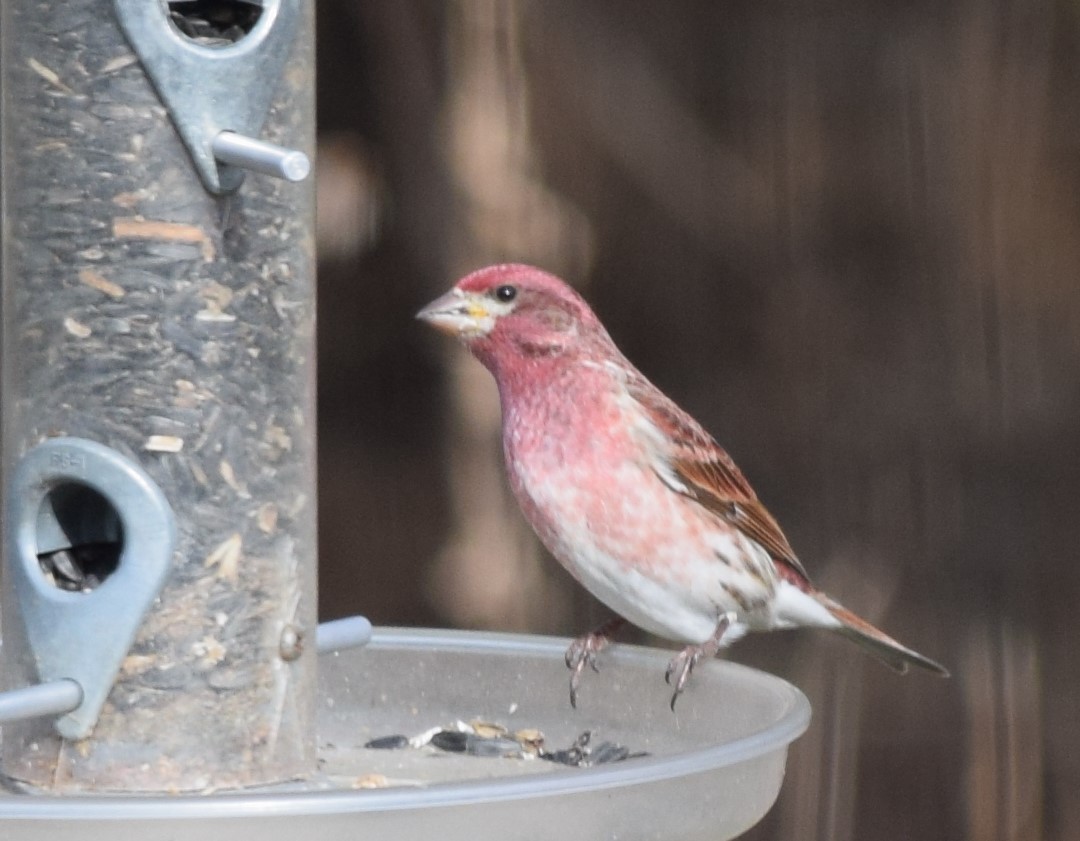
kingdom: Animalia
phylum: Chordata
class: Aves
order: Passeriformes
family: Fringillidae
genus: Haemorhous
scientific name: Haemorhous purpureus
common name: Purple finch
